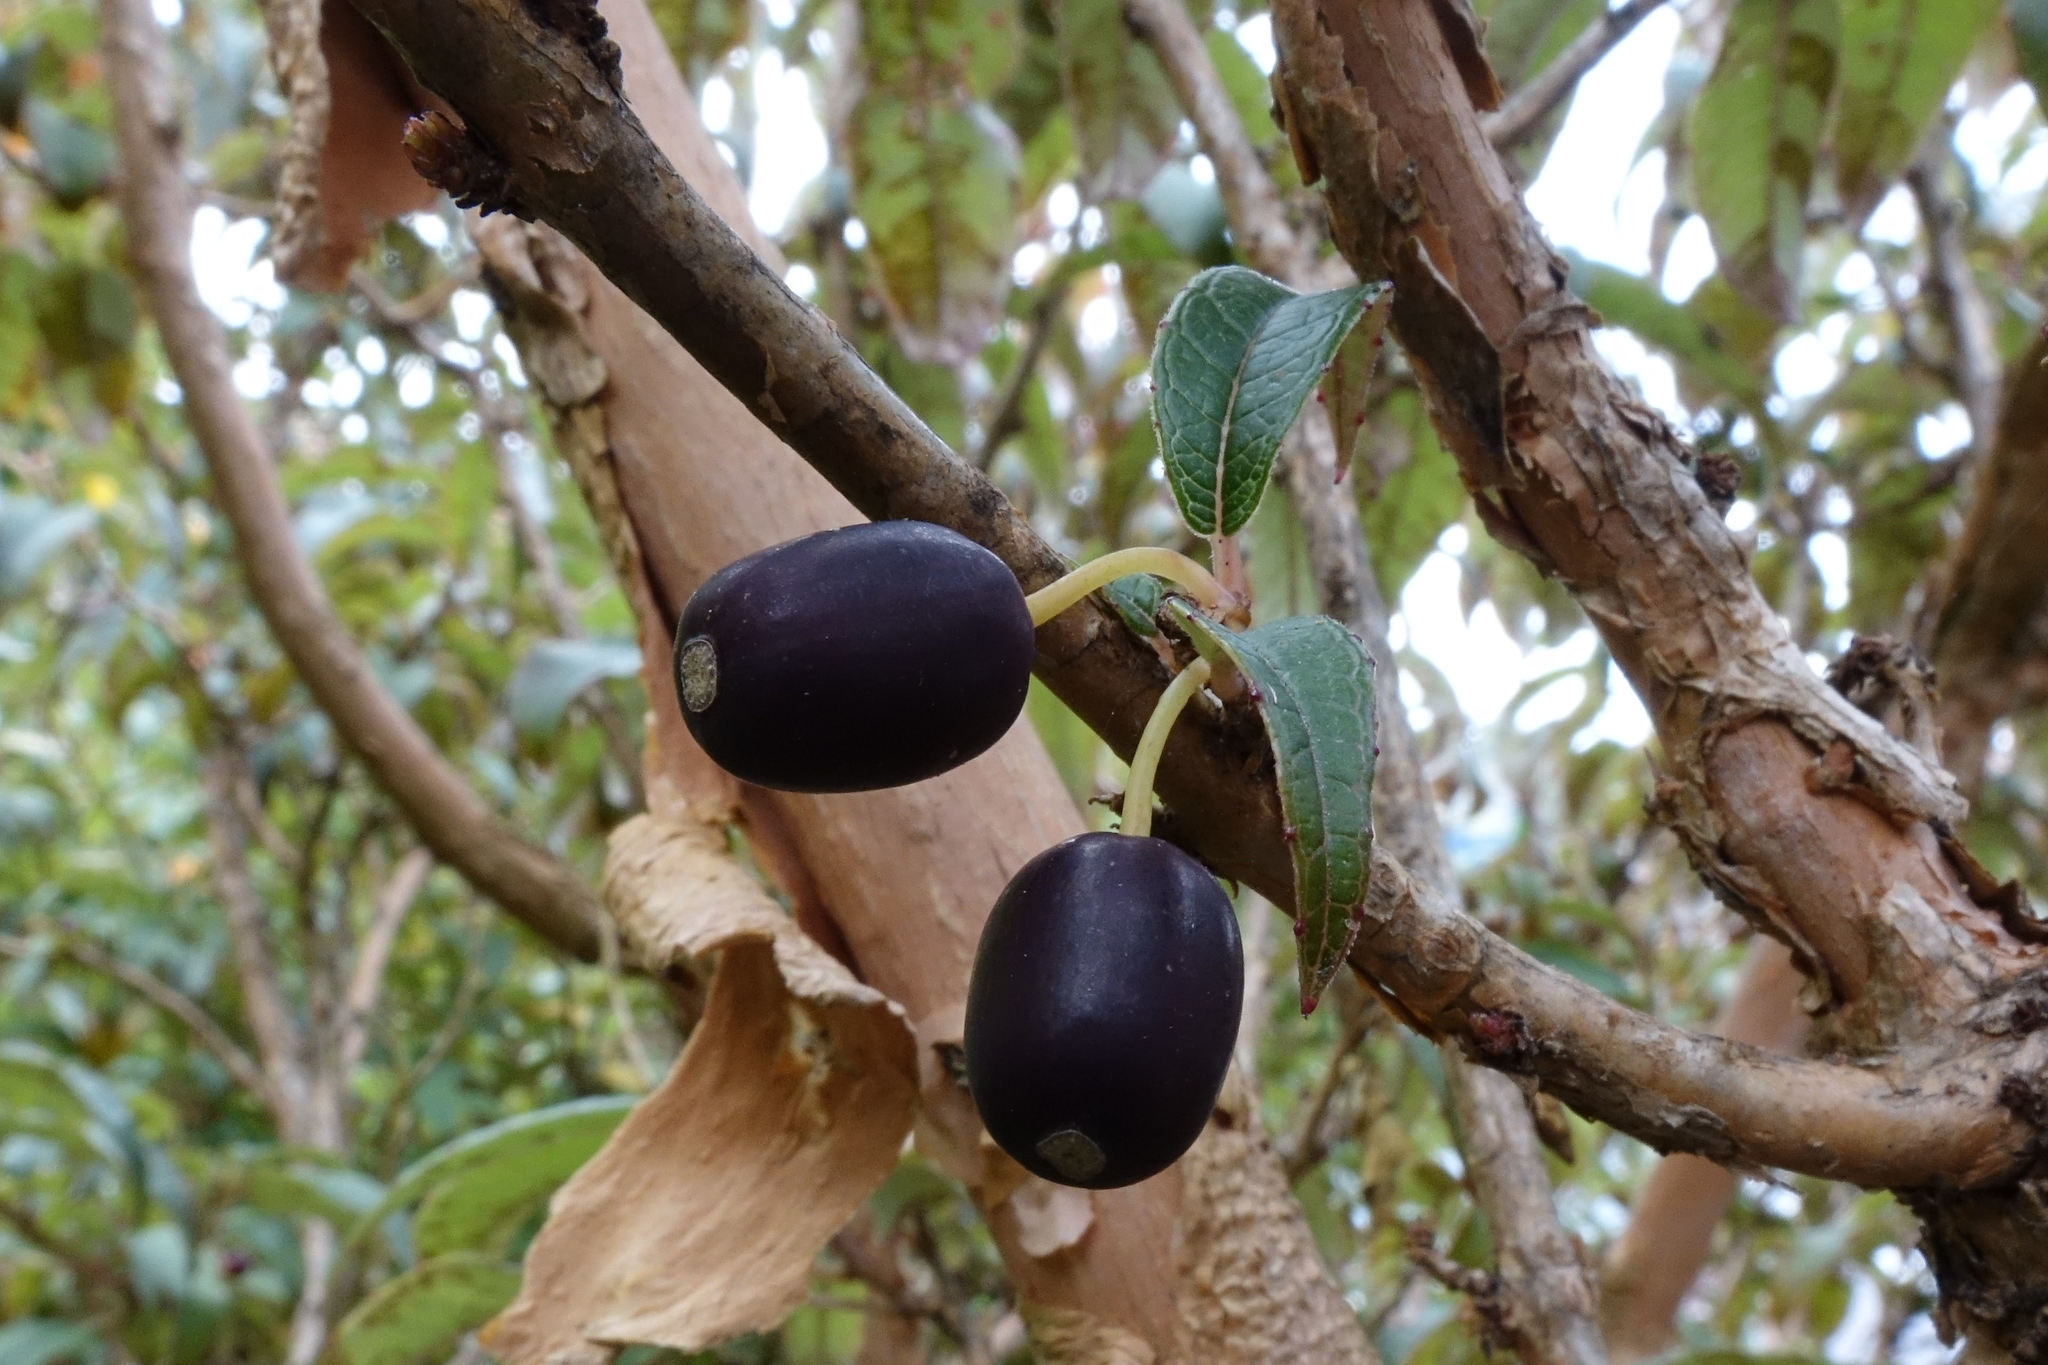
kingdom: Plantae
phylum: Tracheophyta
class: Magnoliopsida
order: Myrtales
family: Onagraceae
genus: Fuchsia
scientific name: Fuchsia excorticata
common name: Tree fuchsia
